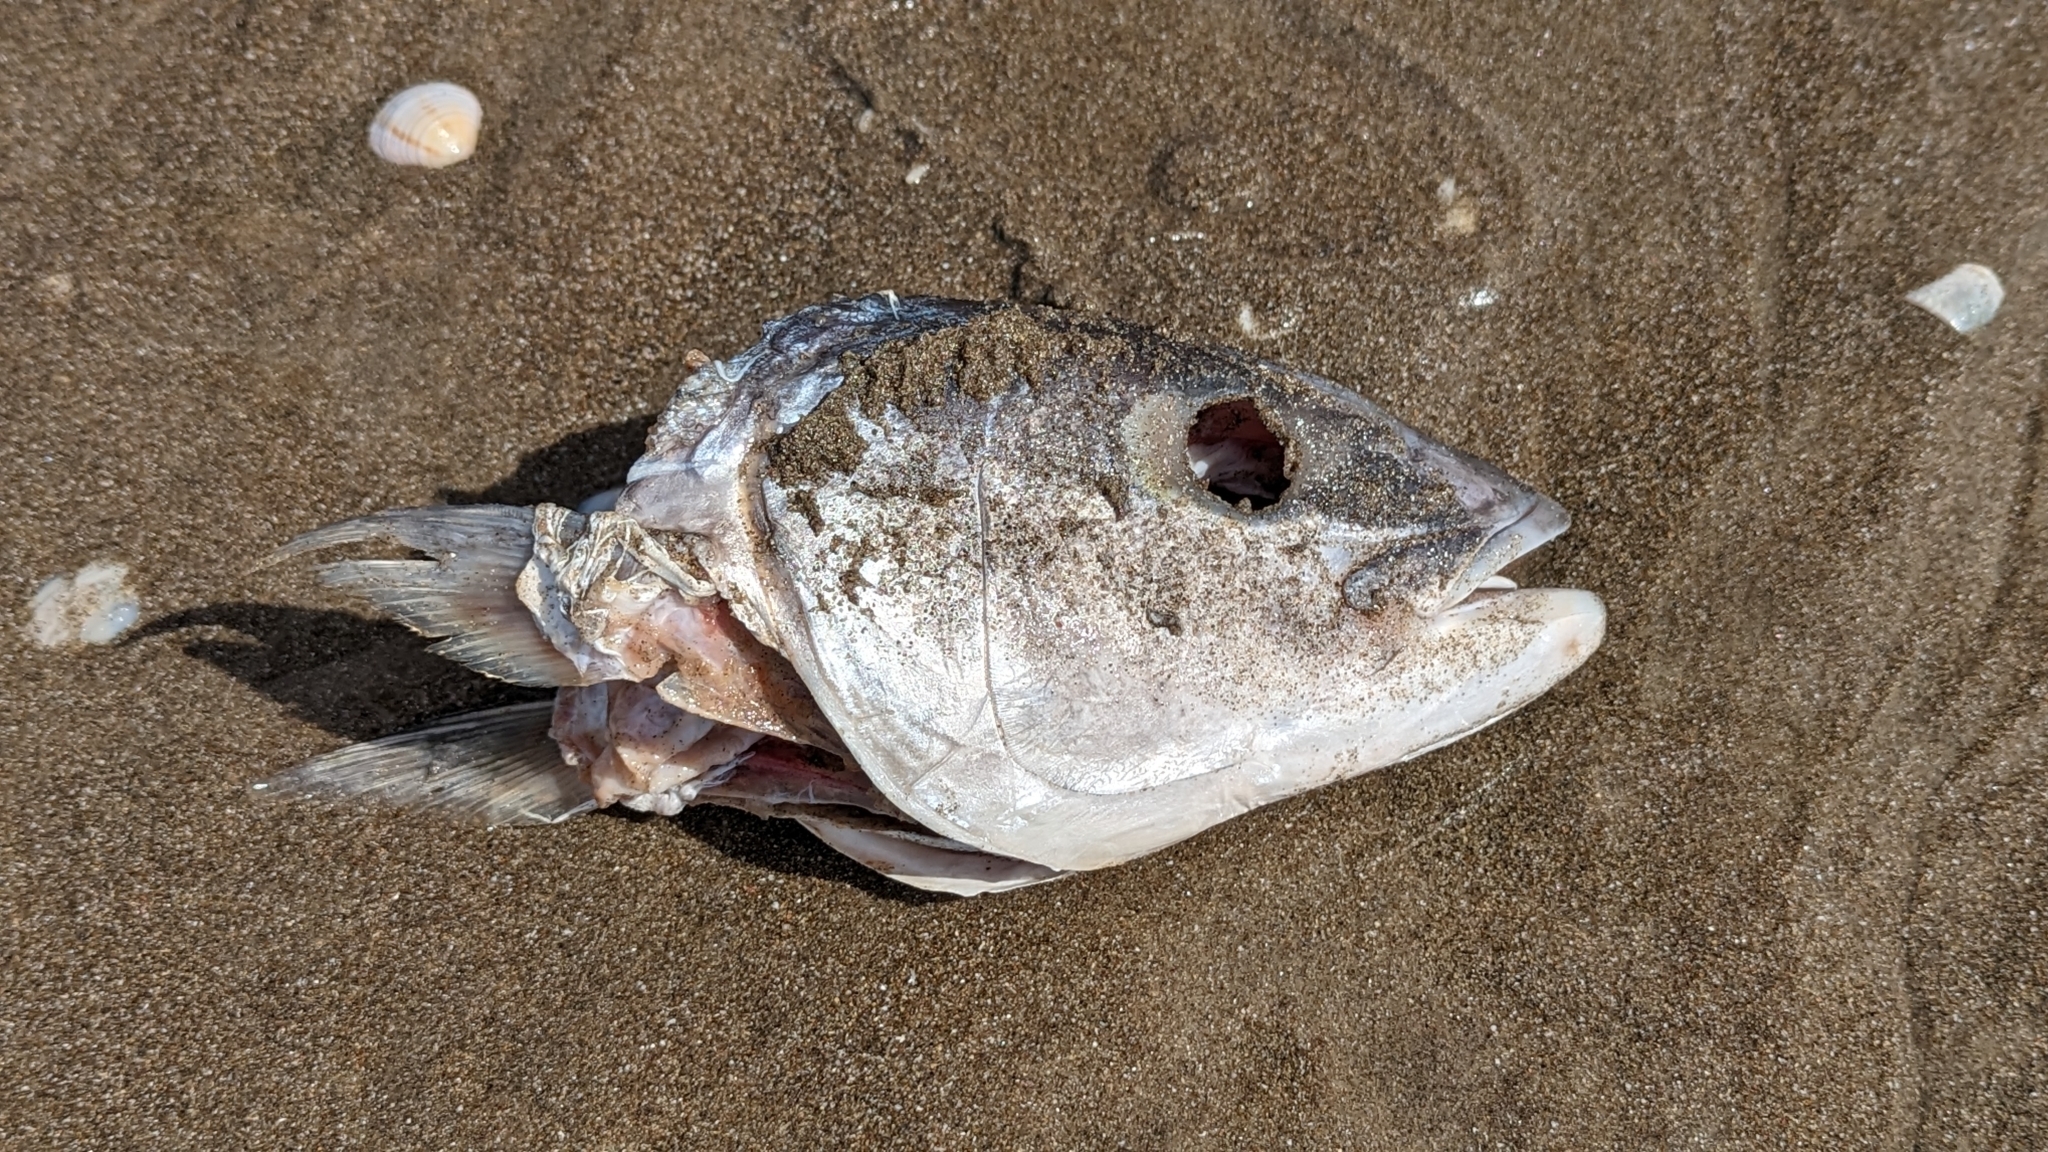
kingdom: Animalia
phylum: Chordata
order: Perciformes
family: Carangidae
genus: Seriola
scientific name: Seriola lalandi
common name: Yellowtail kingfish
